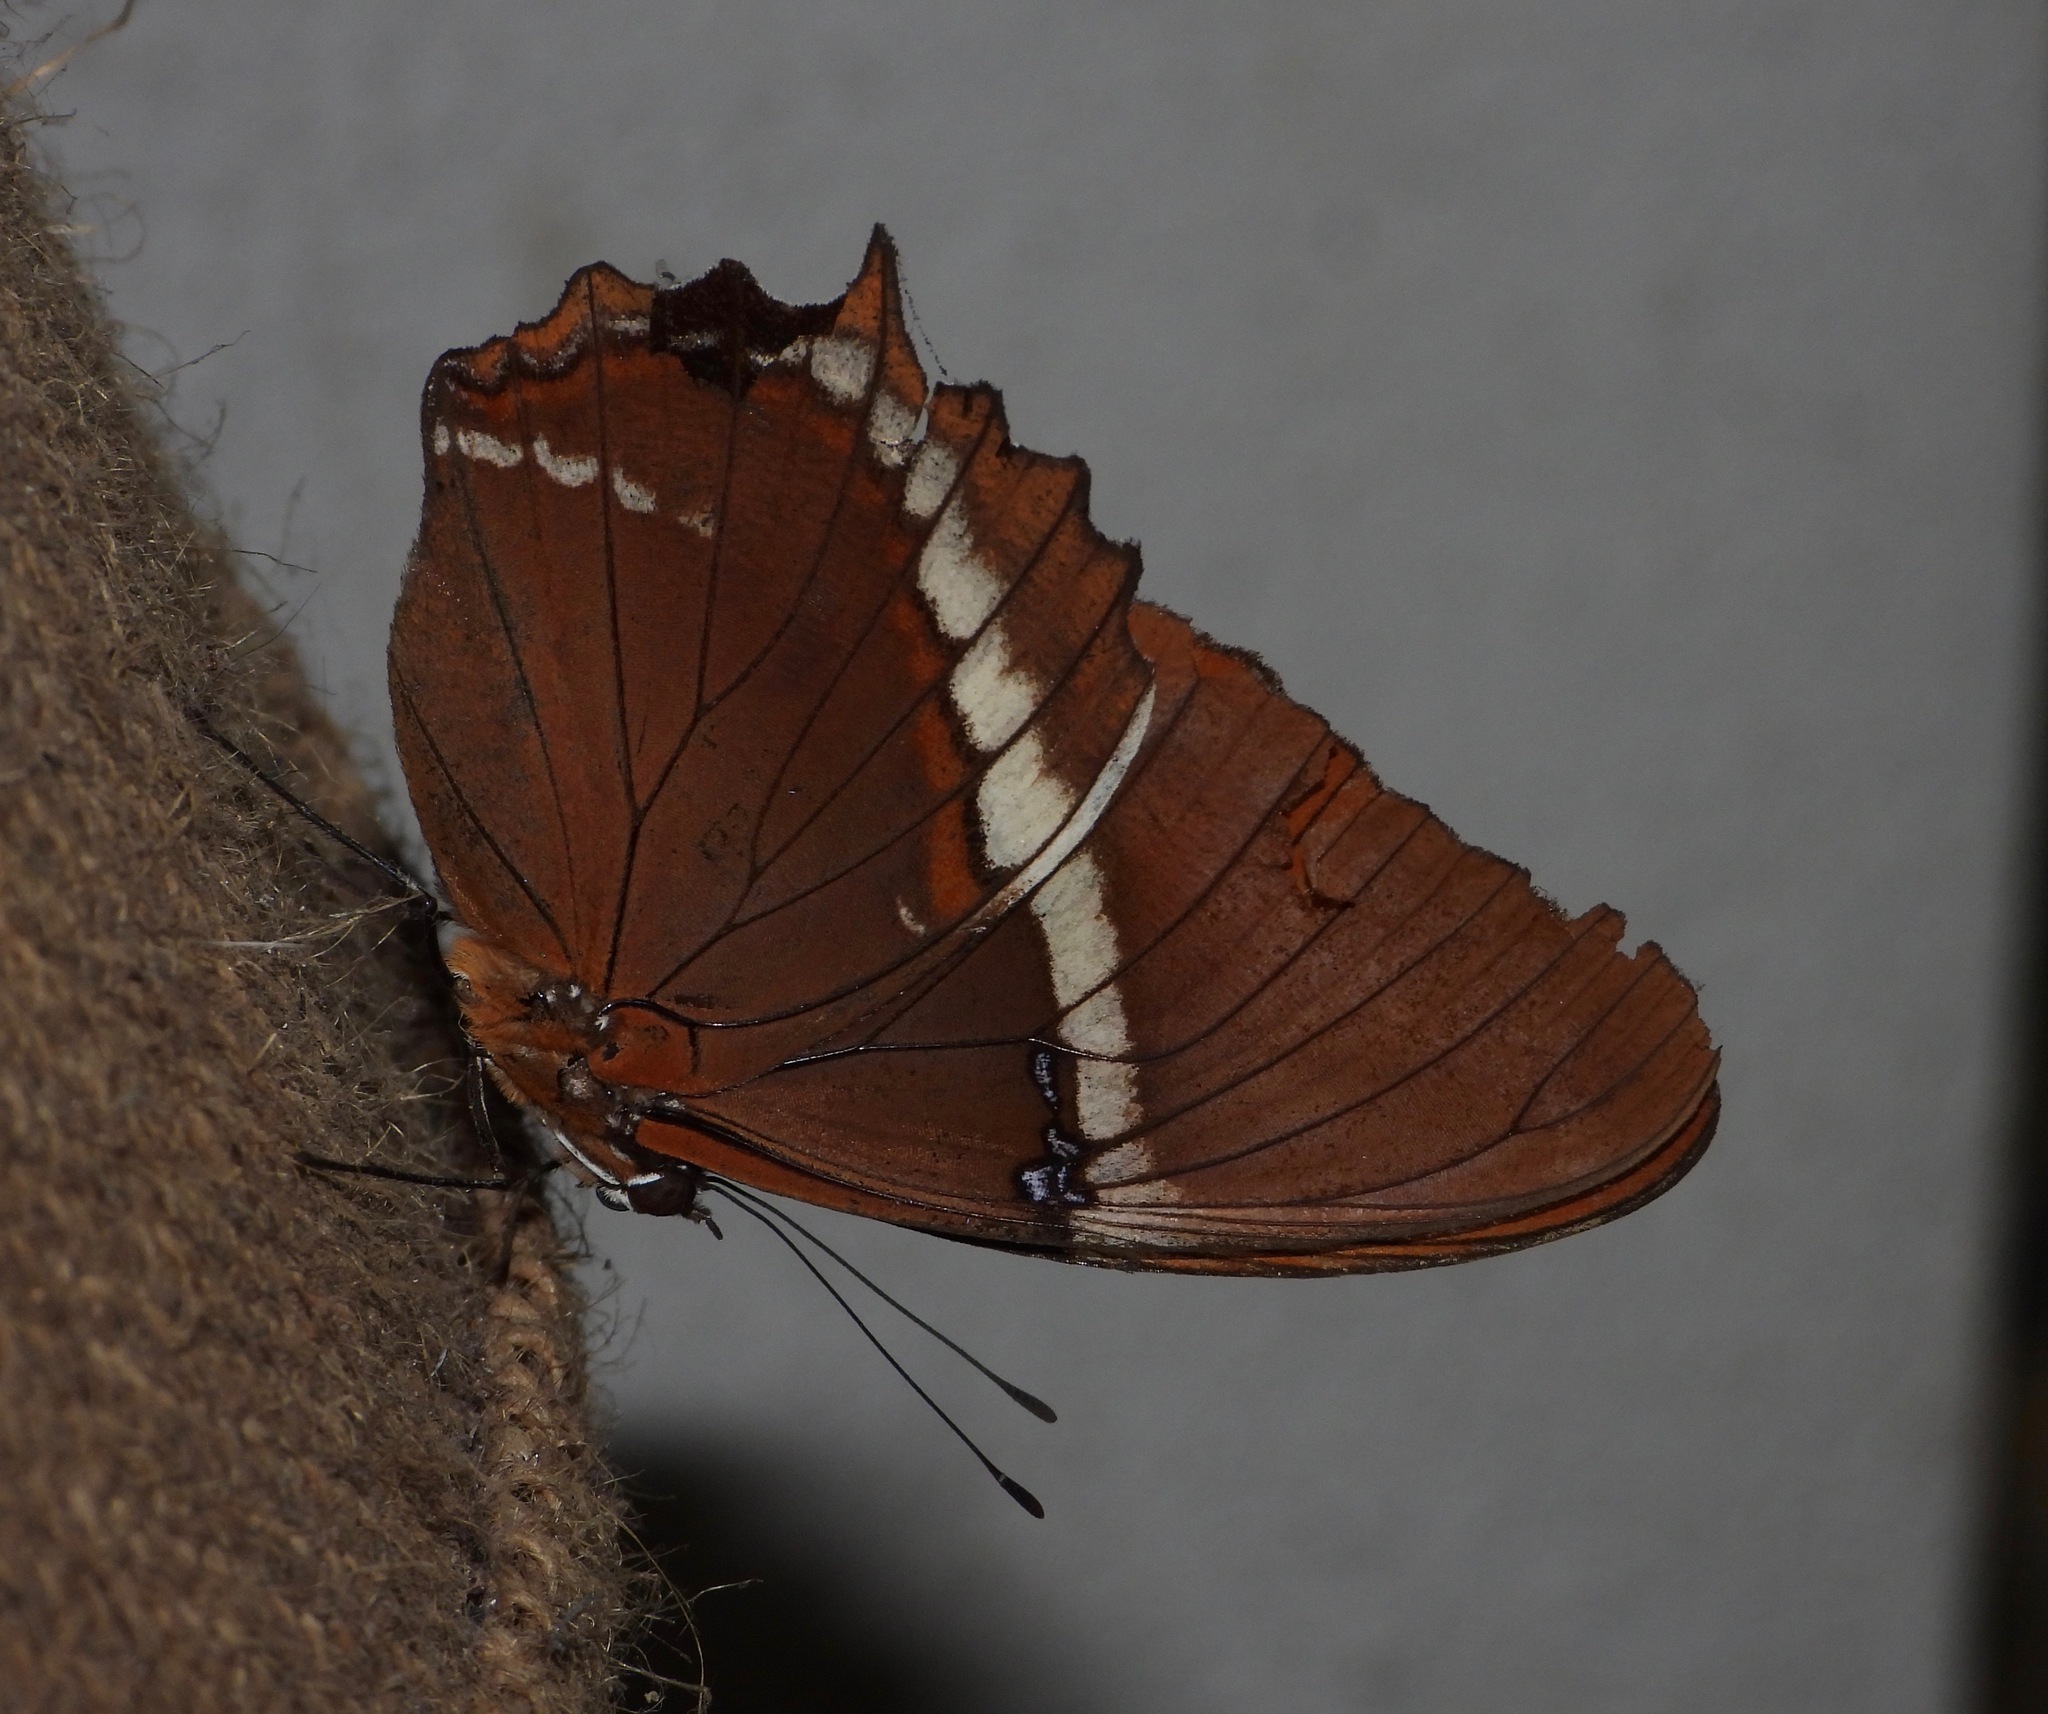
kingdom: Animalia
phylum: Arthropoda
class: Insecta
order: Lepidoptera
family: Nymphalidae
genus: Siproeta
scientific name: Siproeta epaphus
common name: Rusty-tipped page
